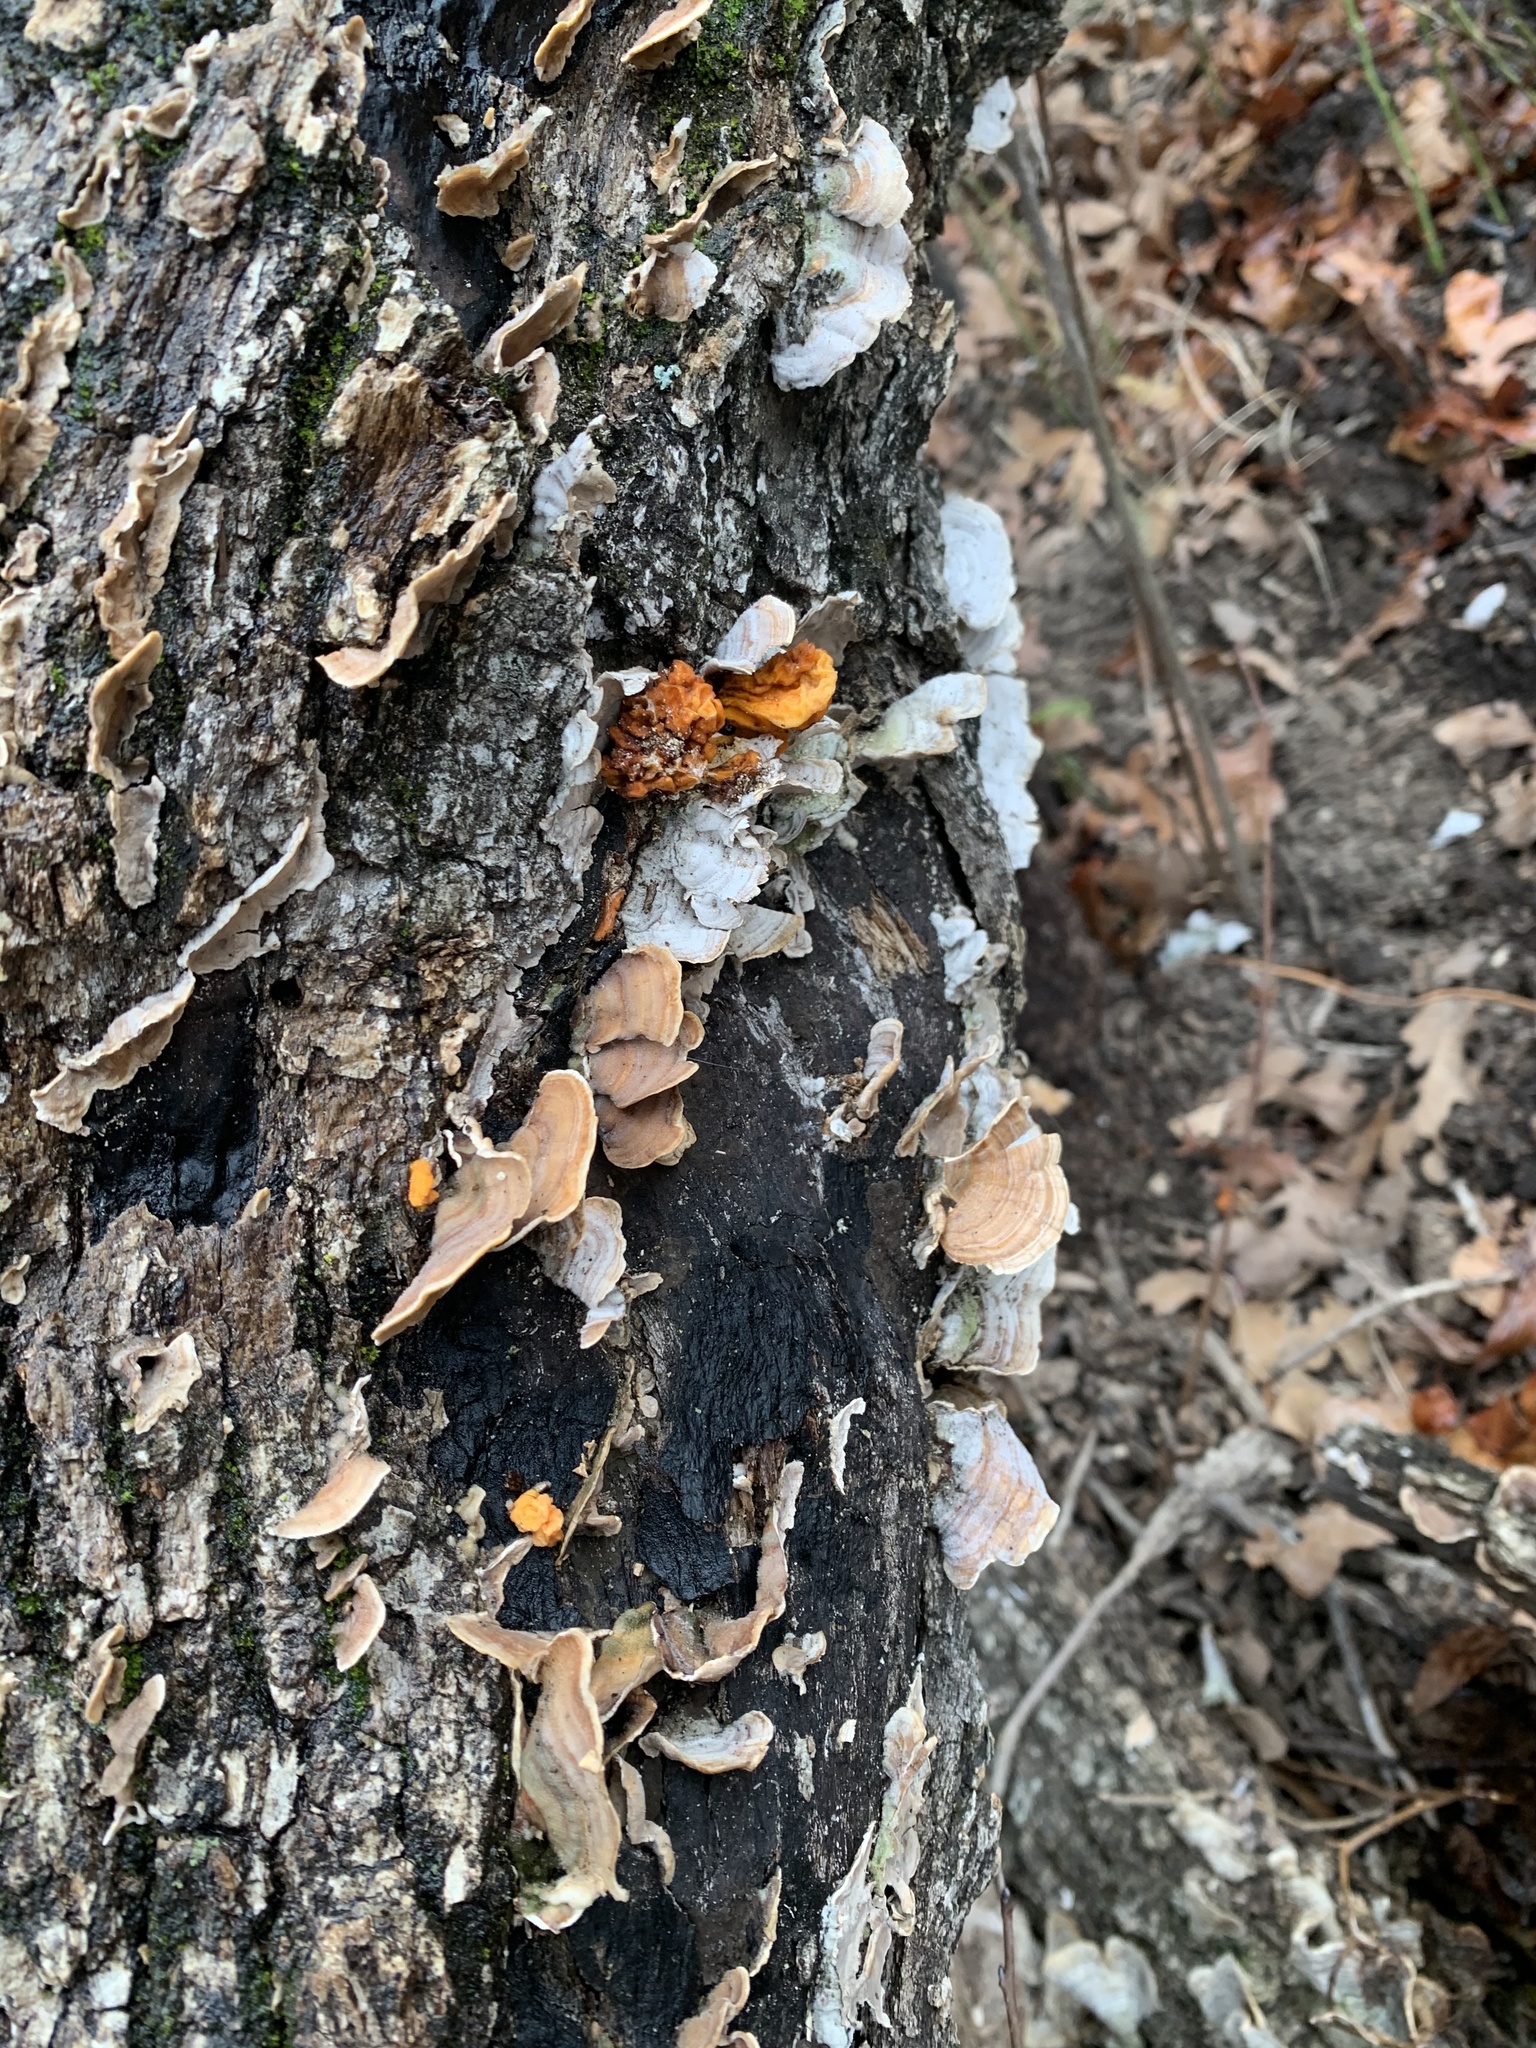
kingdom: Fungi
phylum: Basidiomycota
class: Tremellomycetes
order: Tremellales
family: Naemateliaceae
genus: Naematelia
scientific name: Naematelia aurantia
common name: Golden ear
